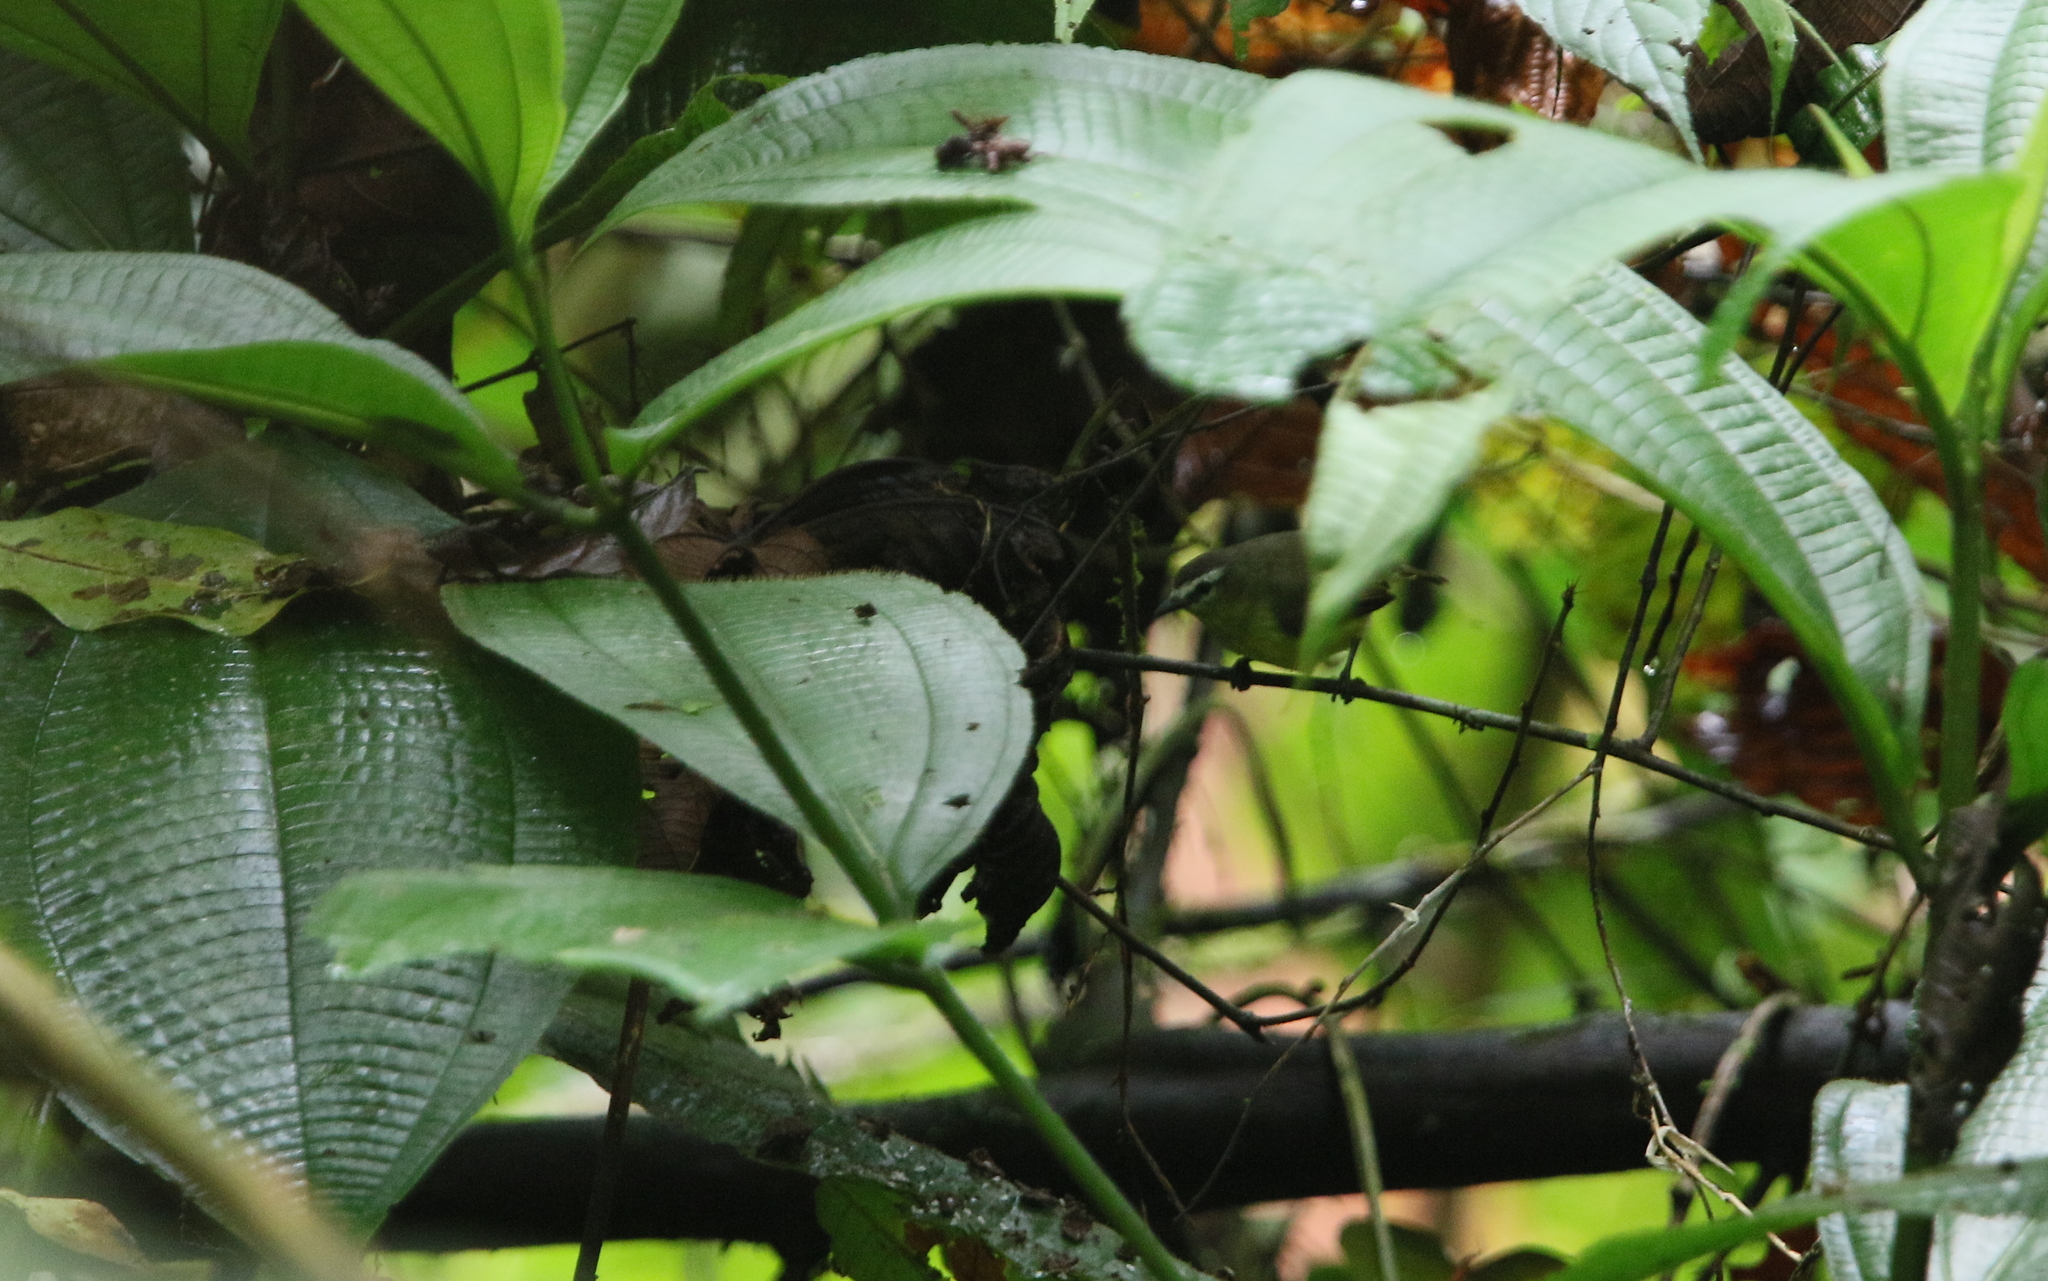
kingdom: Animalia
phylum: Chordata
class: Aves
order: Passeriformes
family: Tyrannidae
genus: Ornithion
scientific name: Ornithion brunneicapillus
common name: Brown-capped tyrannulet
